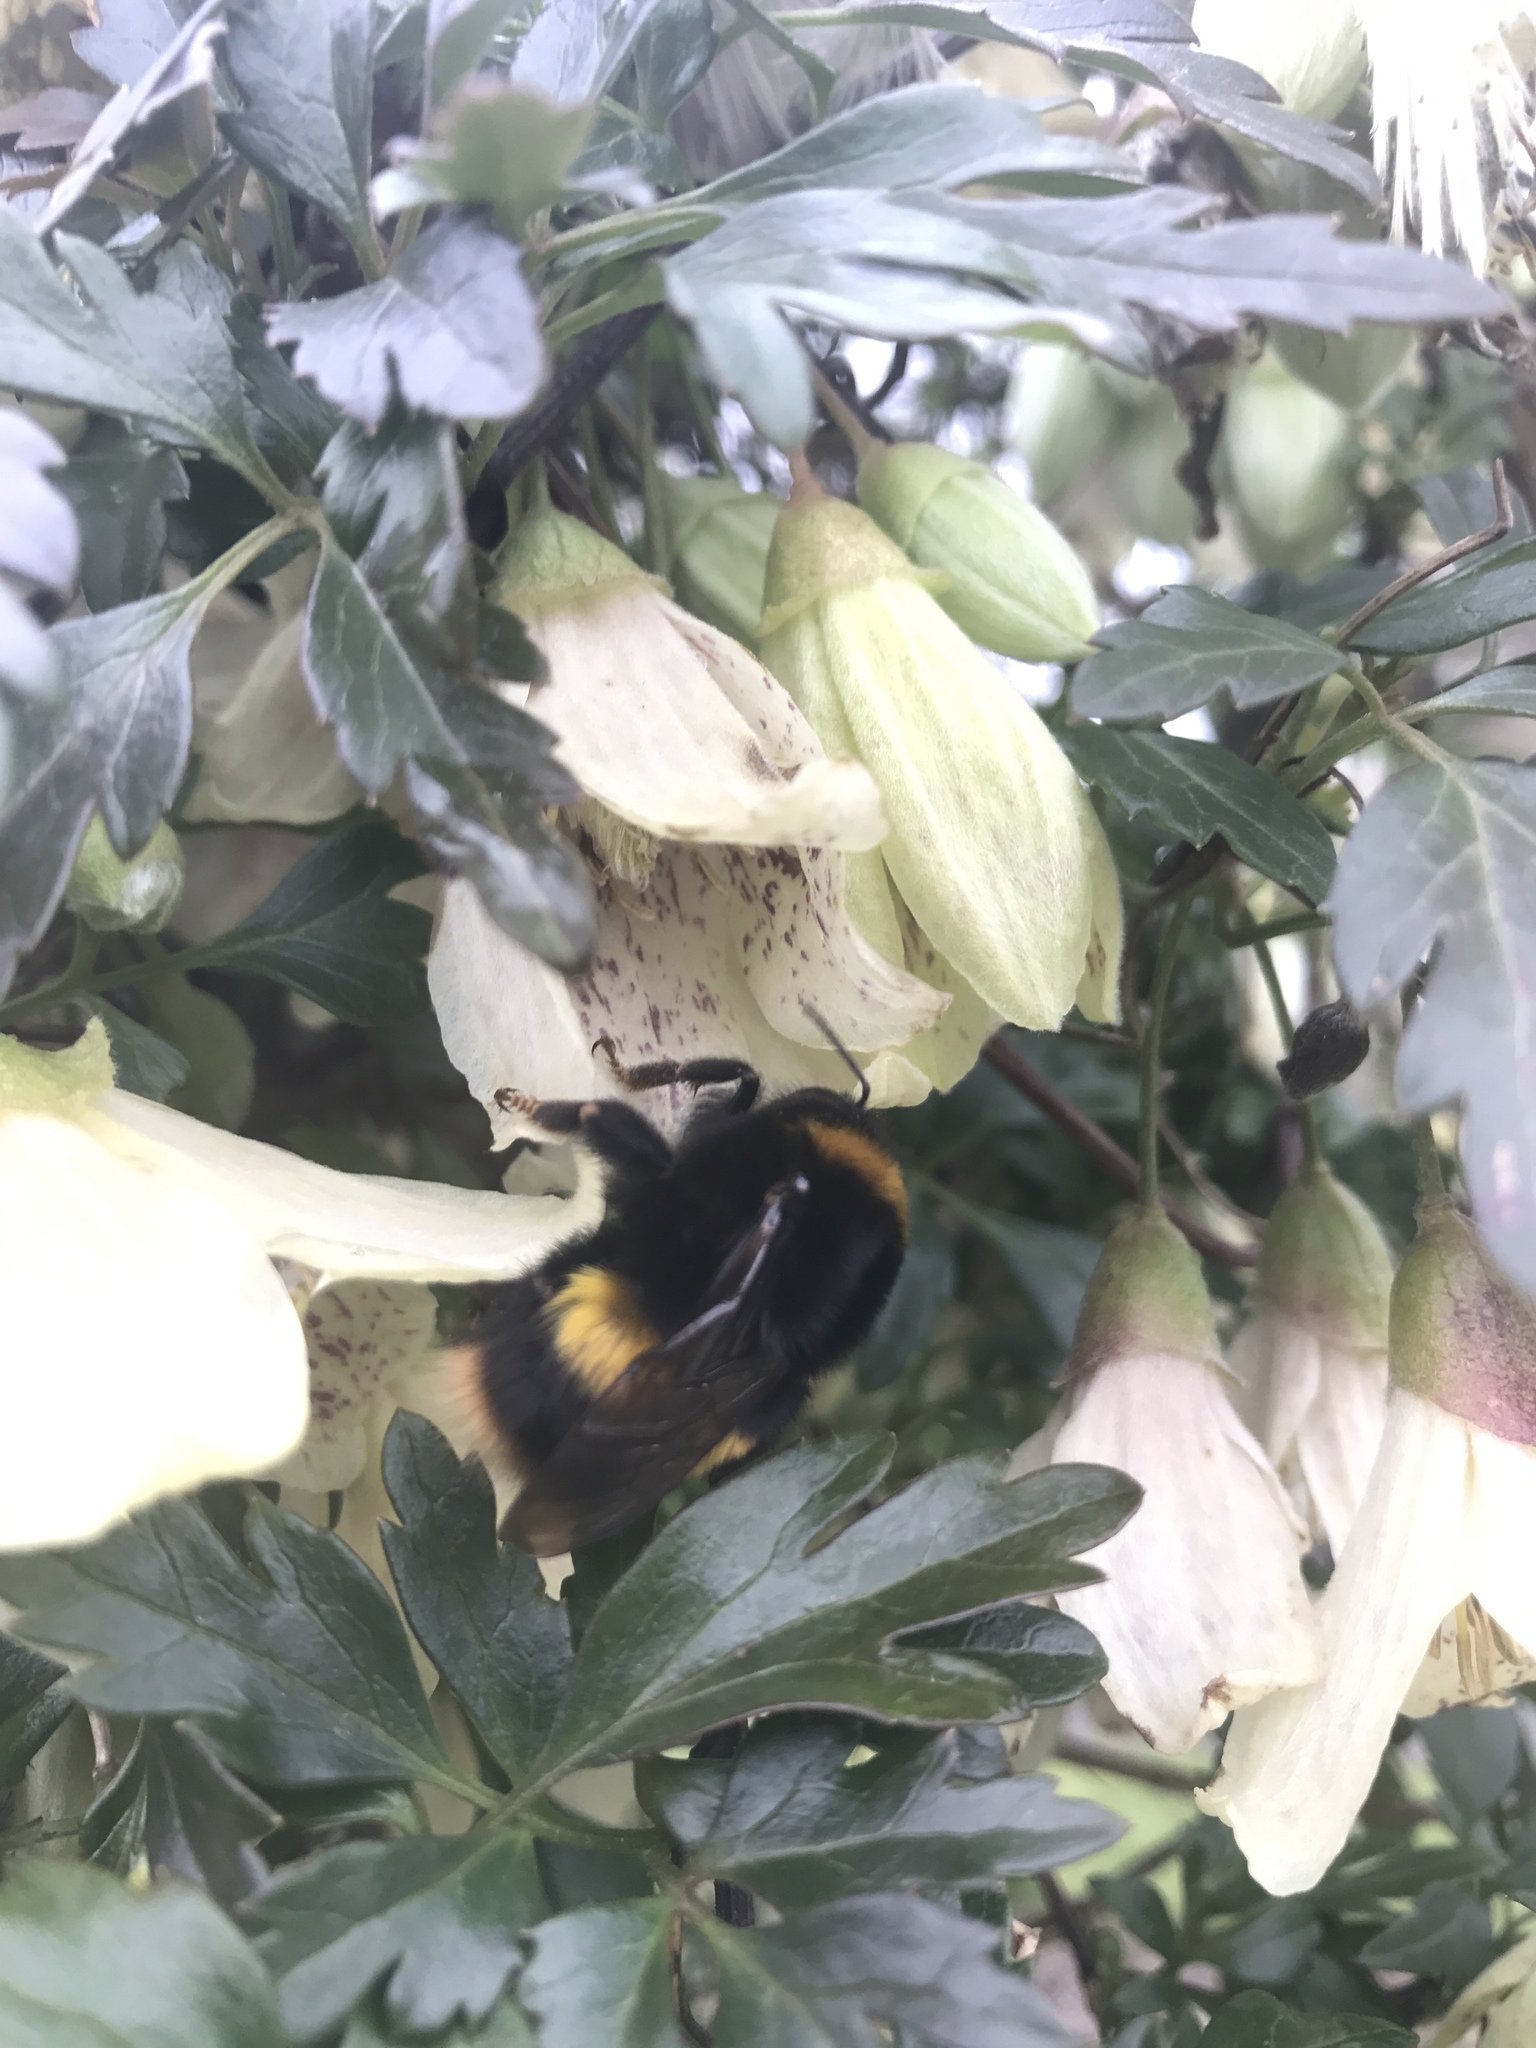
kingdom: Animalia
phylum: Arthropoda
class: Insecta
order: Hymenoptera
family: Apidae
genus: Bombus
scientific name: Bombus terrestris
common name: Buff-tailed bumblebee
